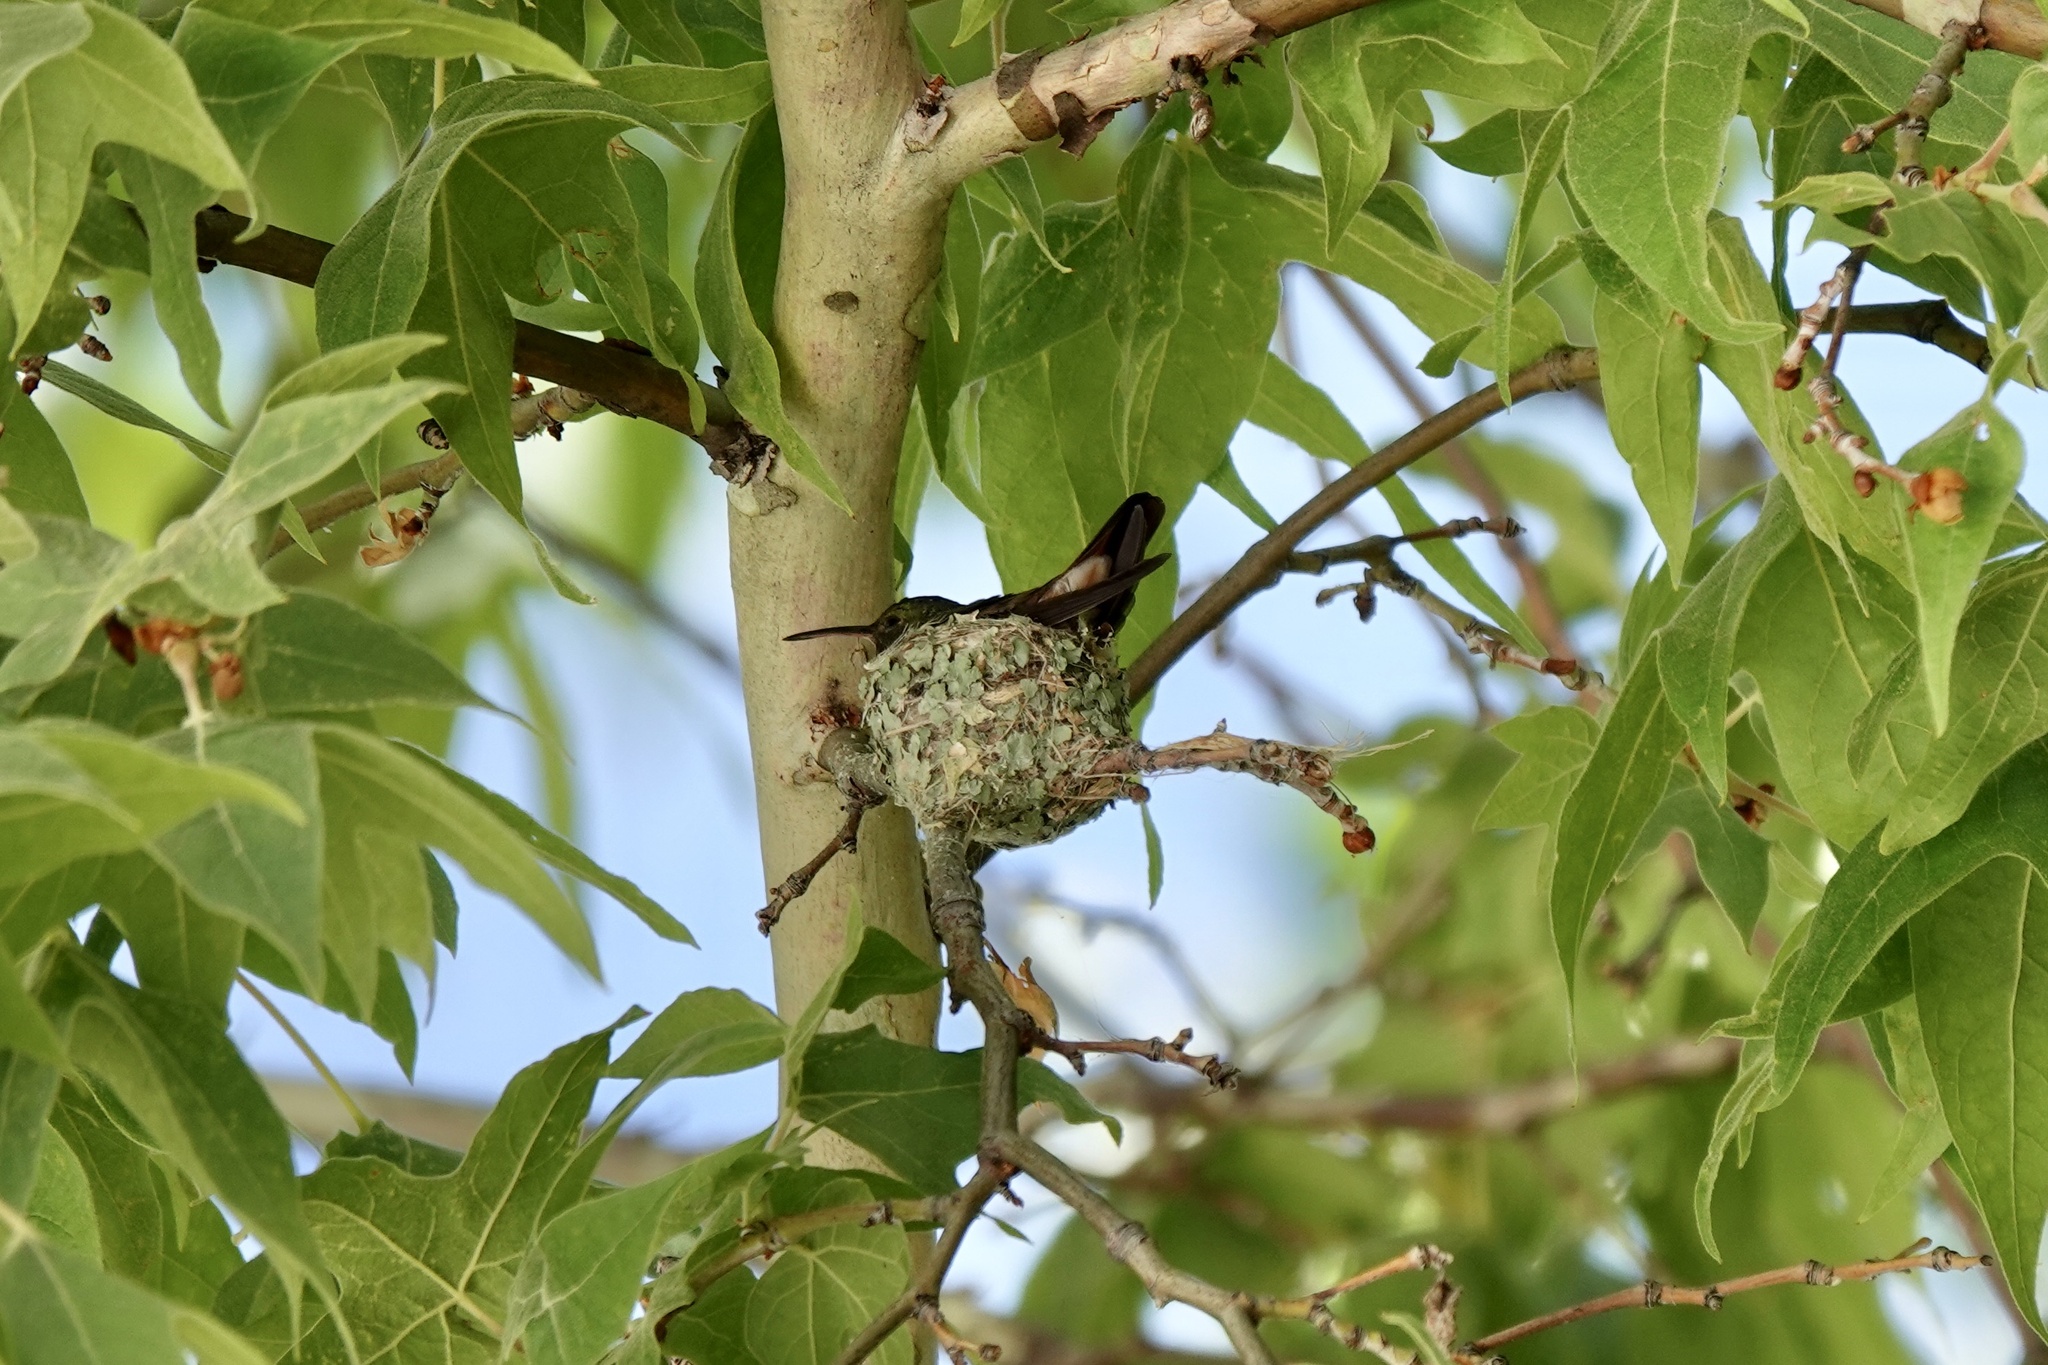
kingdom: Animalia
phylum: Chordata
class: Aves
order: Apodiformes
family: Trochilidae
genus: Saucerottia
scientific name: Saucerottia beryllina
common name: Berylline hummingbird
